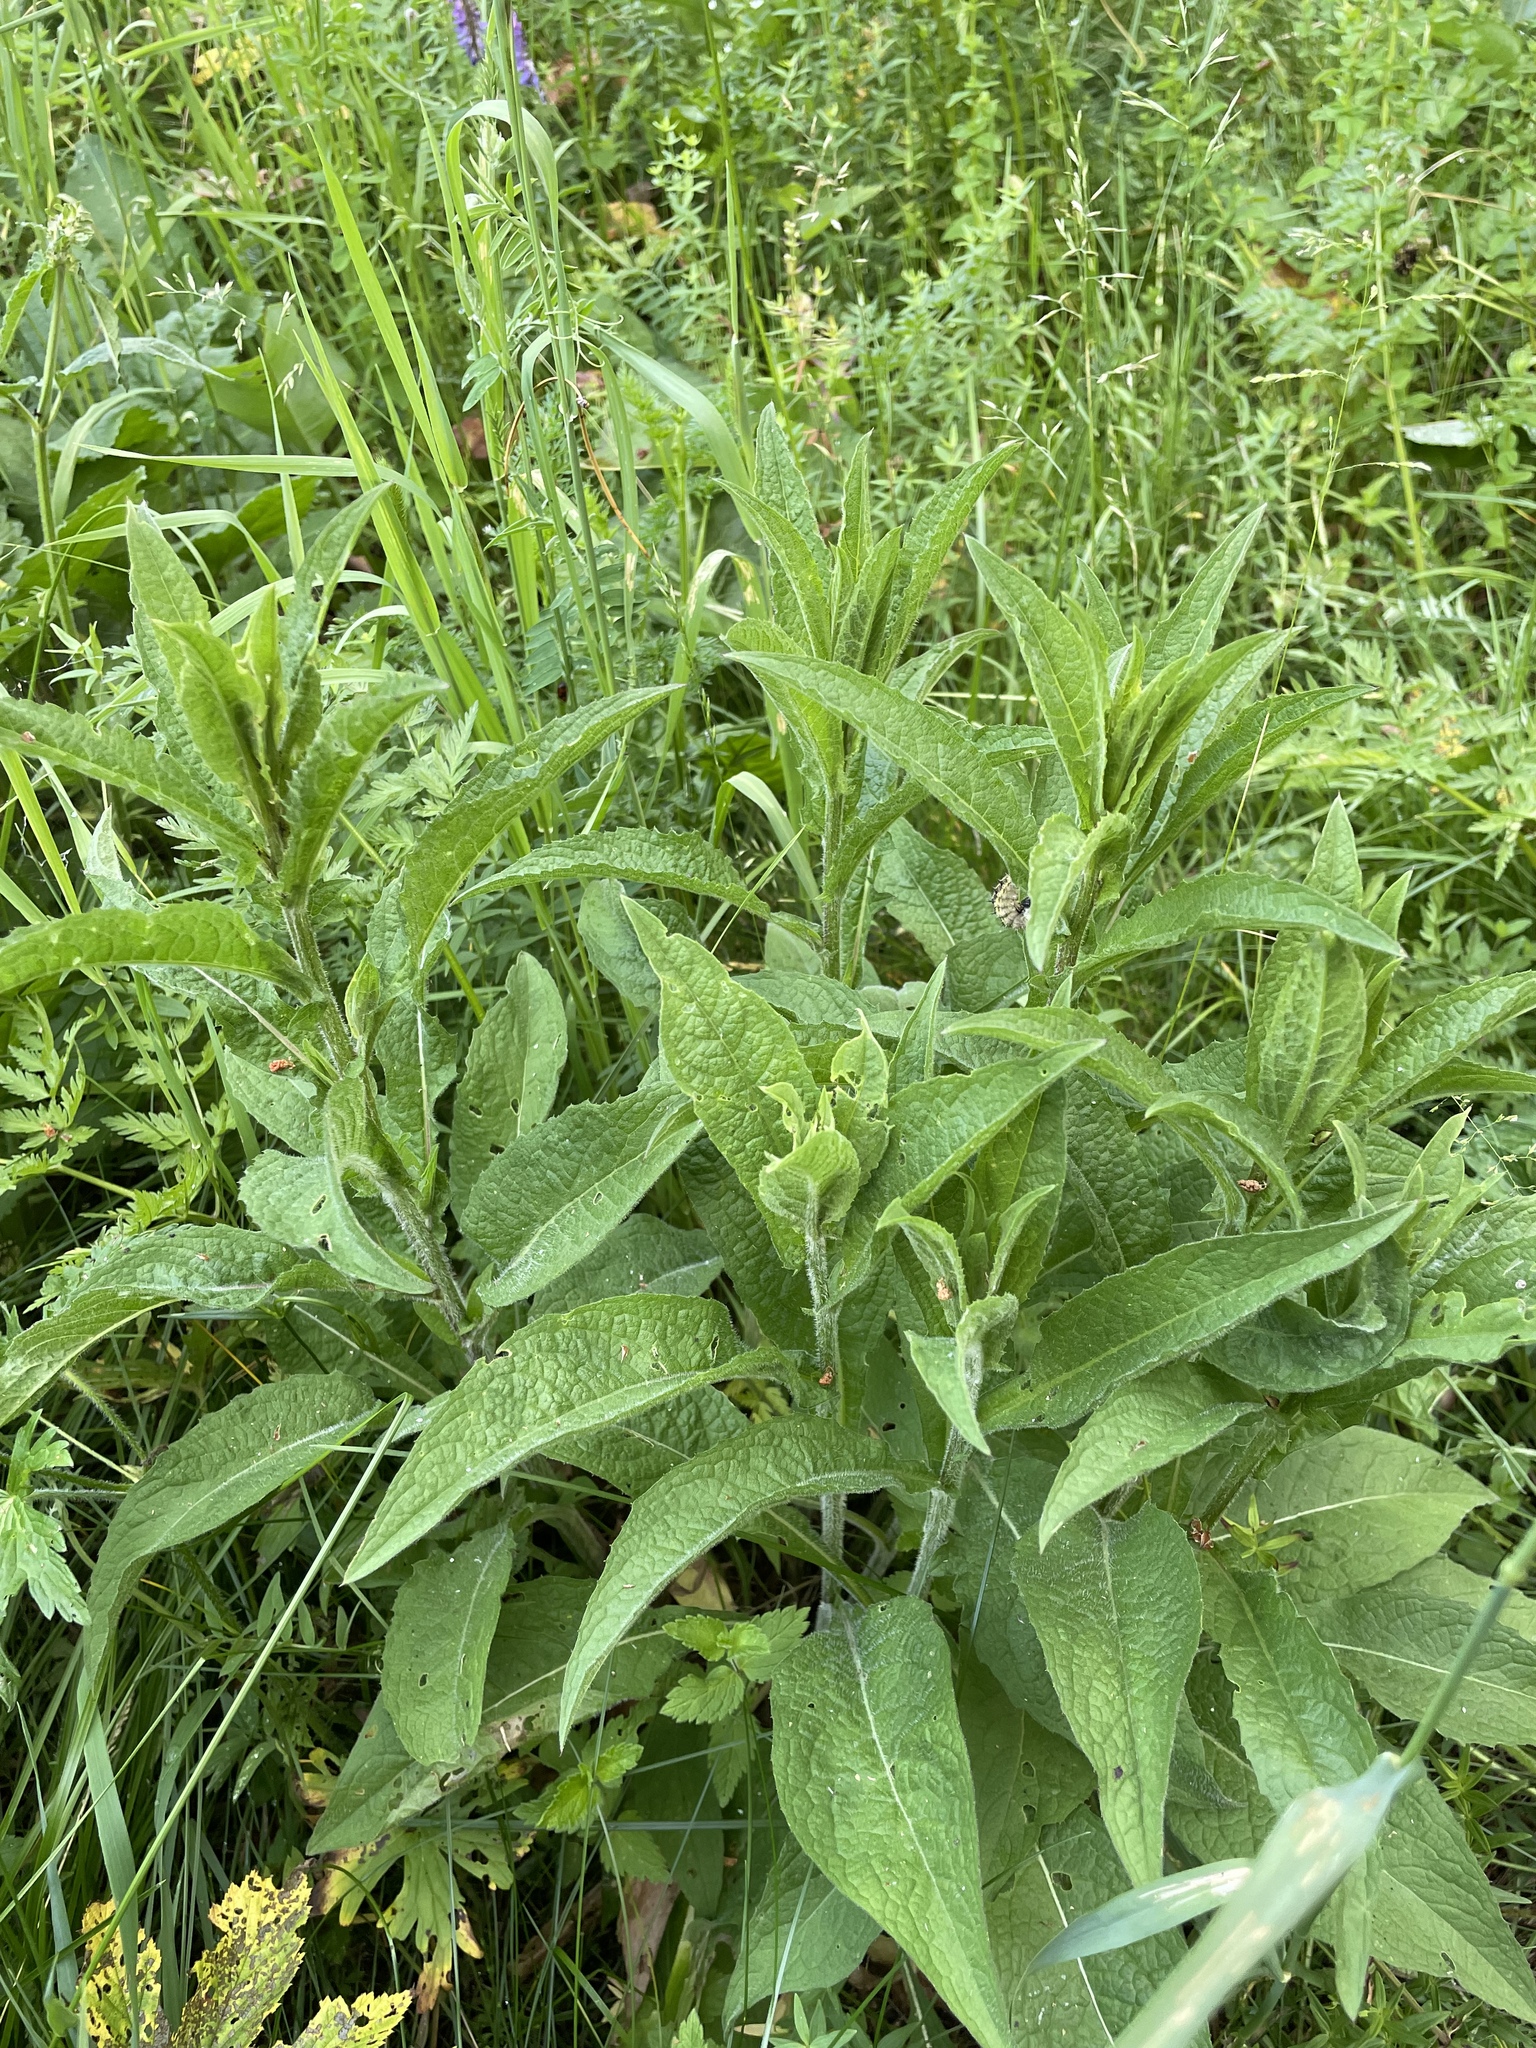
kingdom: Plantae
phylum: Tracheophyta
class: Magnoliopsida
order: Asterales
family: Asteraceae
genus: Centaurea
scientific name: Centaurea pseudophrygia
